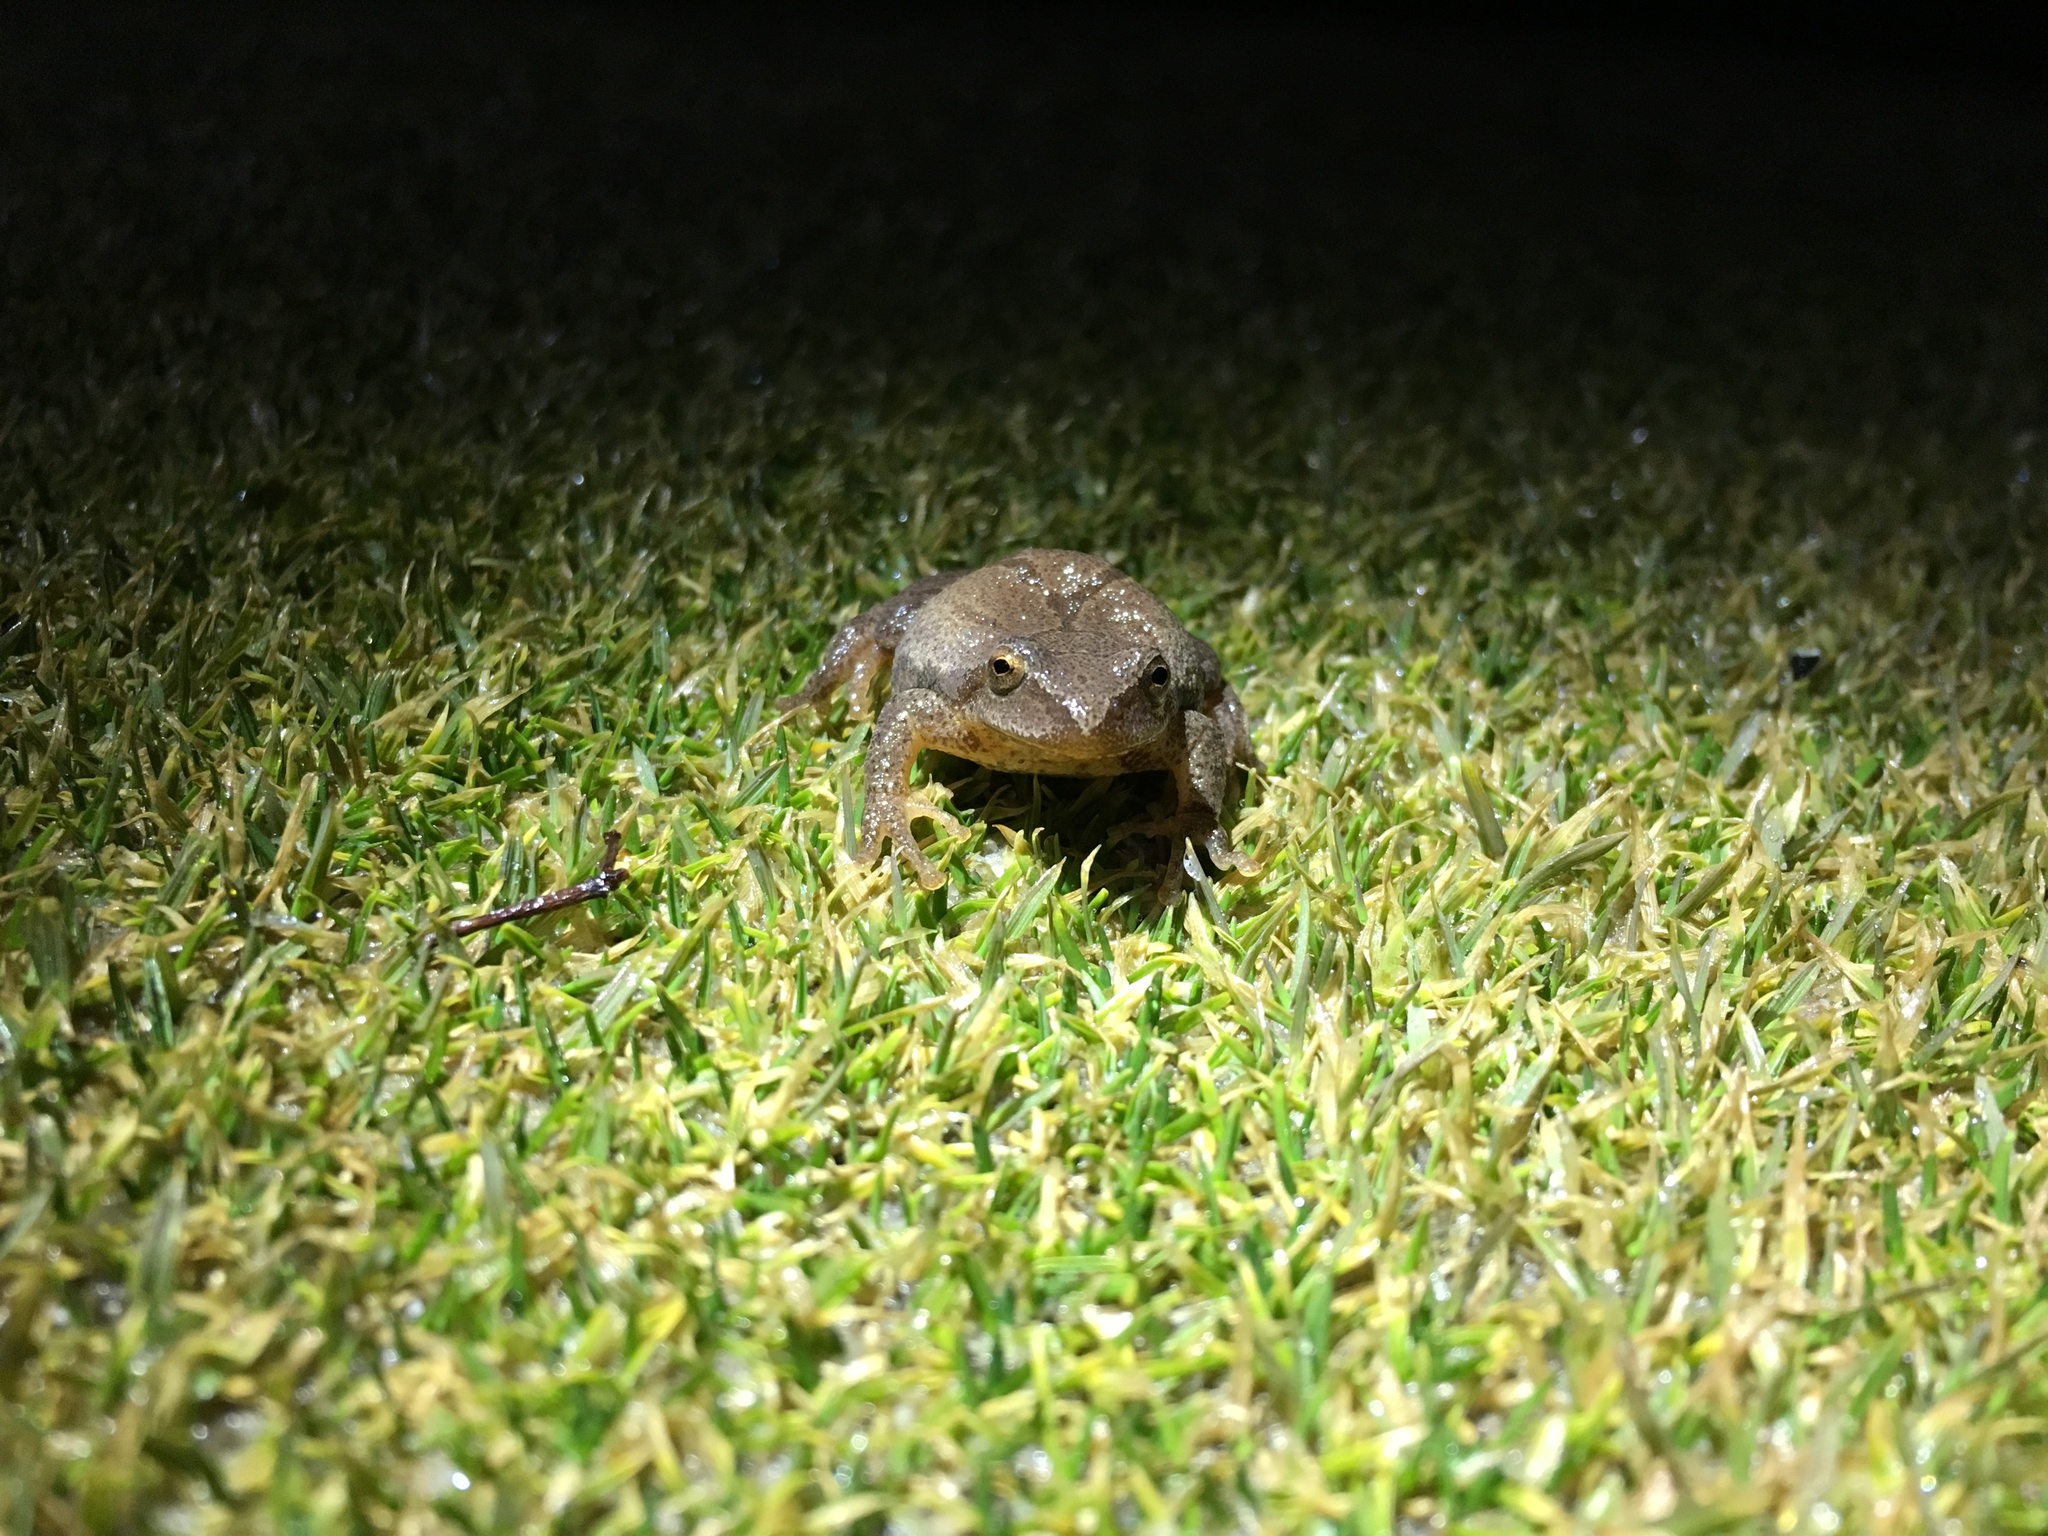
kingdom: Animalia
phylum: Chordata
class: Amphibia
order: Anura
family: Hylidae
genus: Pseudacris
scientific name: Pseudacris crucifer
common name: Spring peeper
